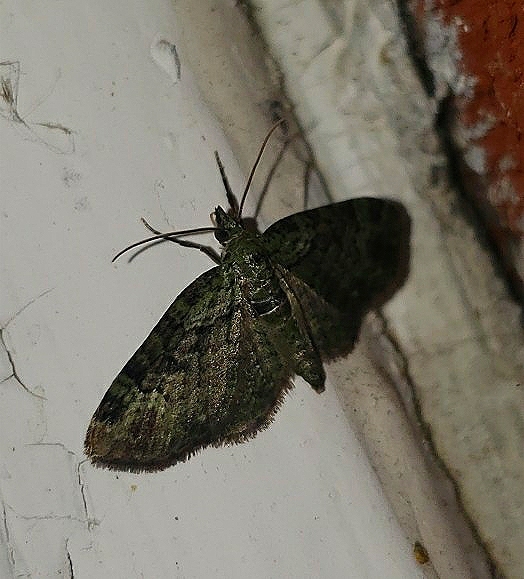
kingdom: Animalia
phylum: Arthropoda
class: Insecta
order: Lepidoptera
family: Geometridae
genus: Pasiphila
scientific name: Pasiphila rectangulata
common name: Green pug
